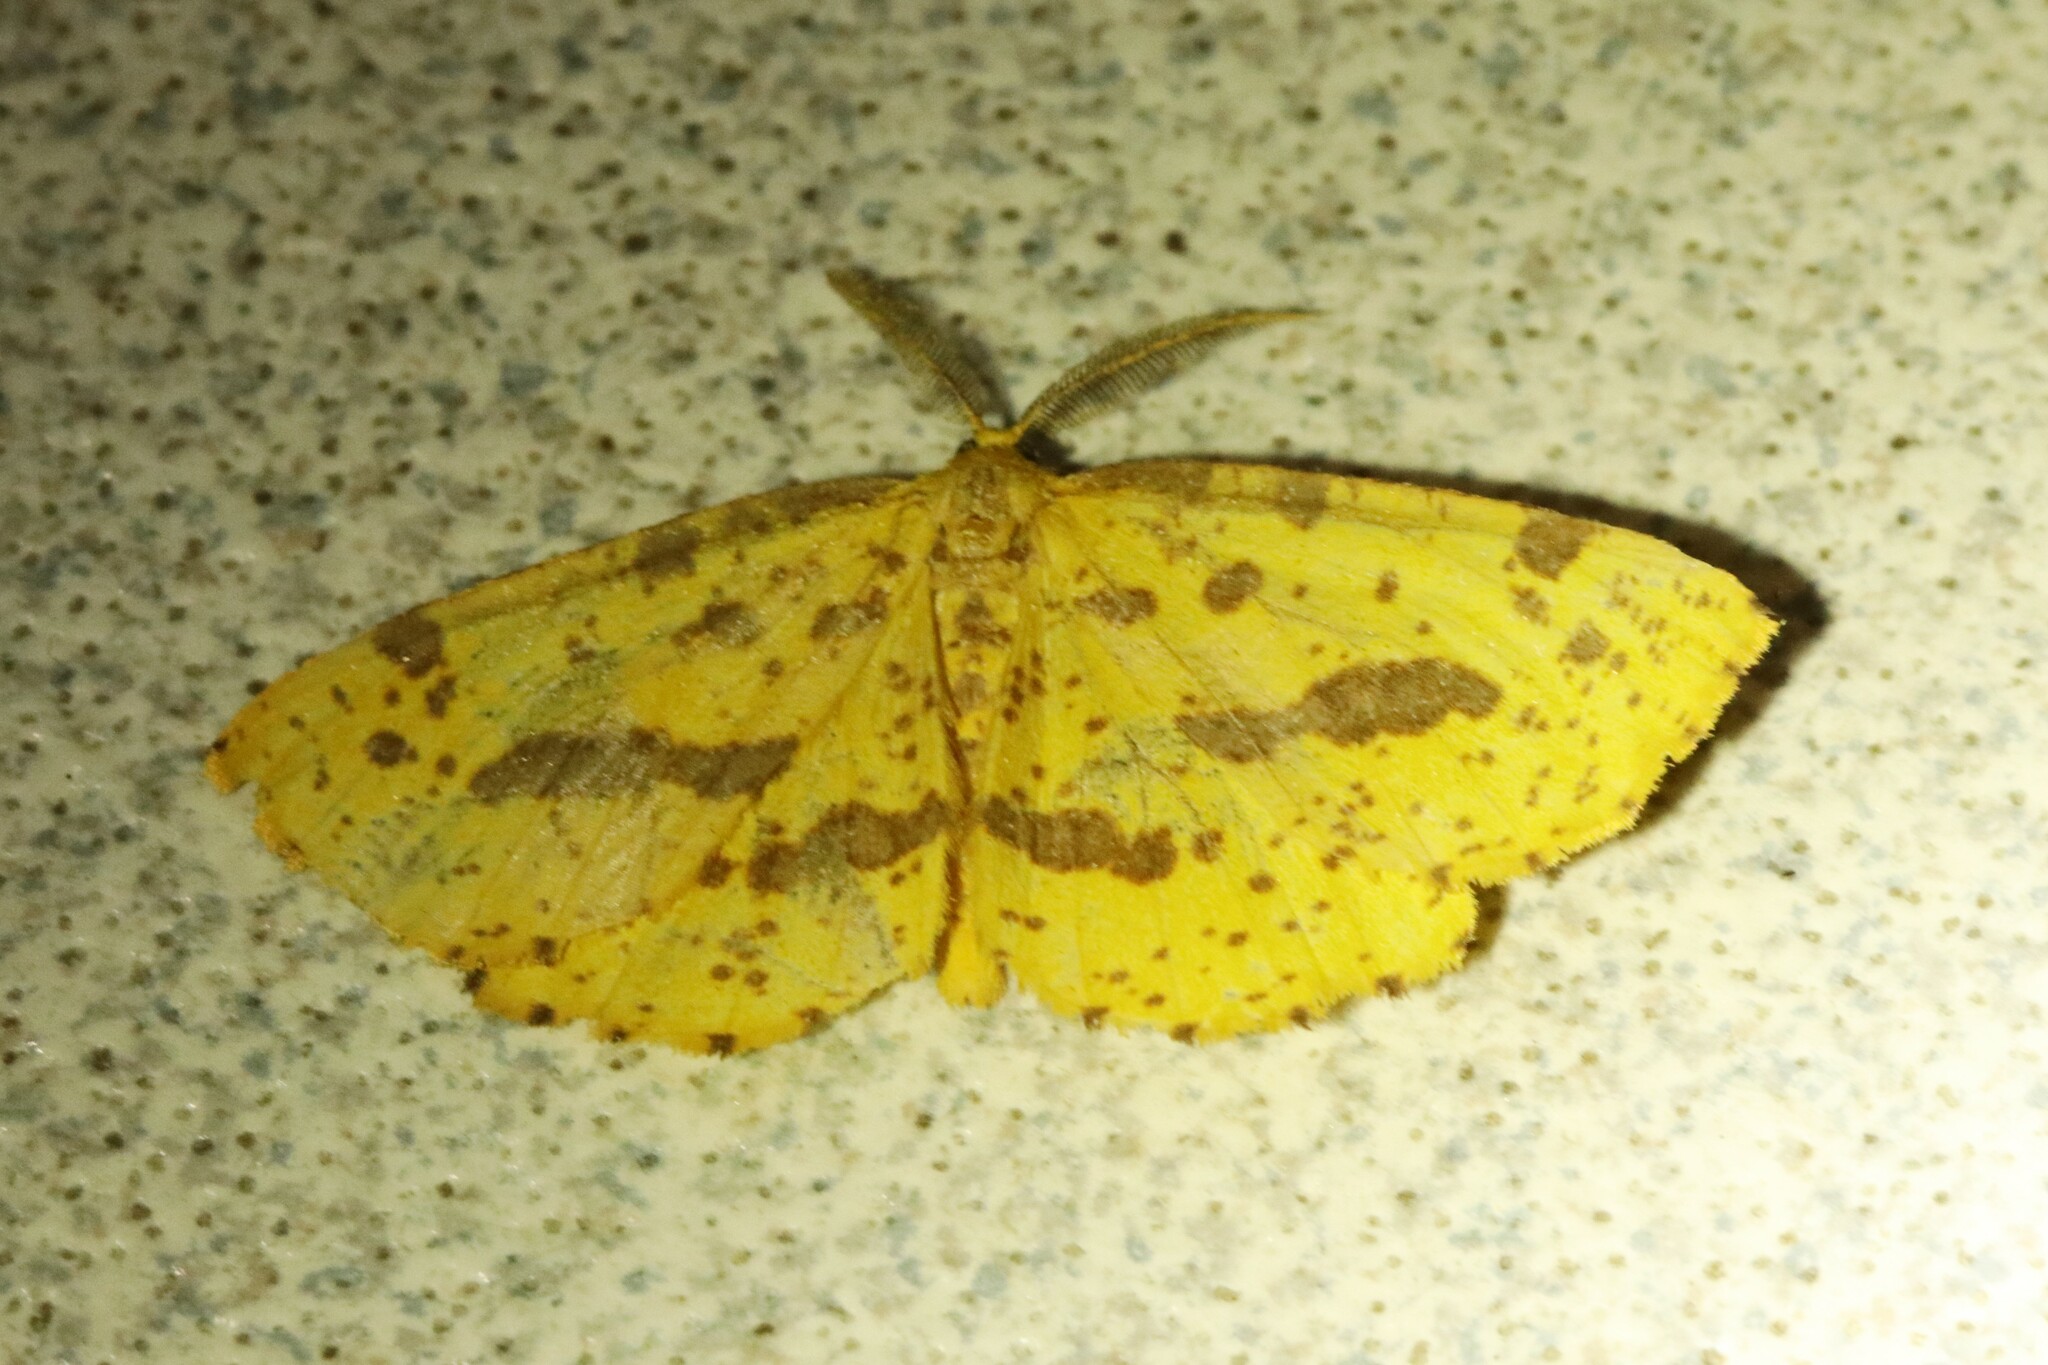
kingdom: Animalia
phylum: Arthropoda
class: Insecta
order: Lepidoptera
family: Geometridae
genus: Xanthotype
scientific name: Xanthotype
